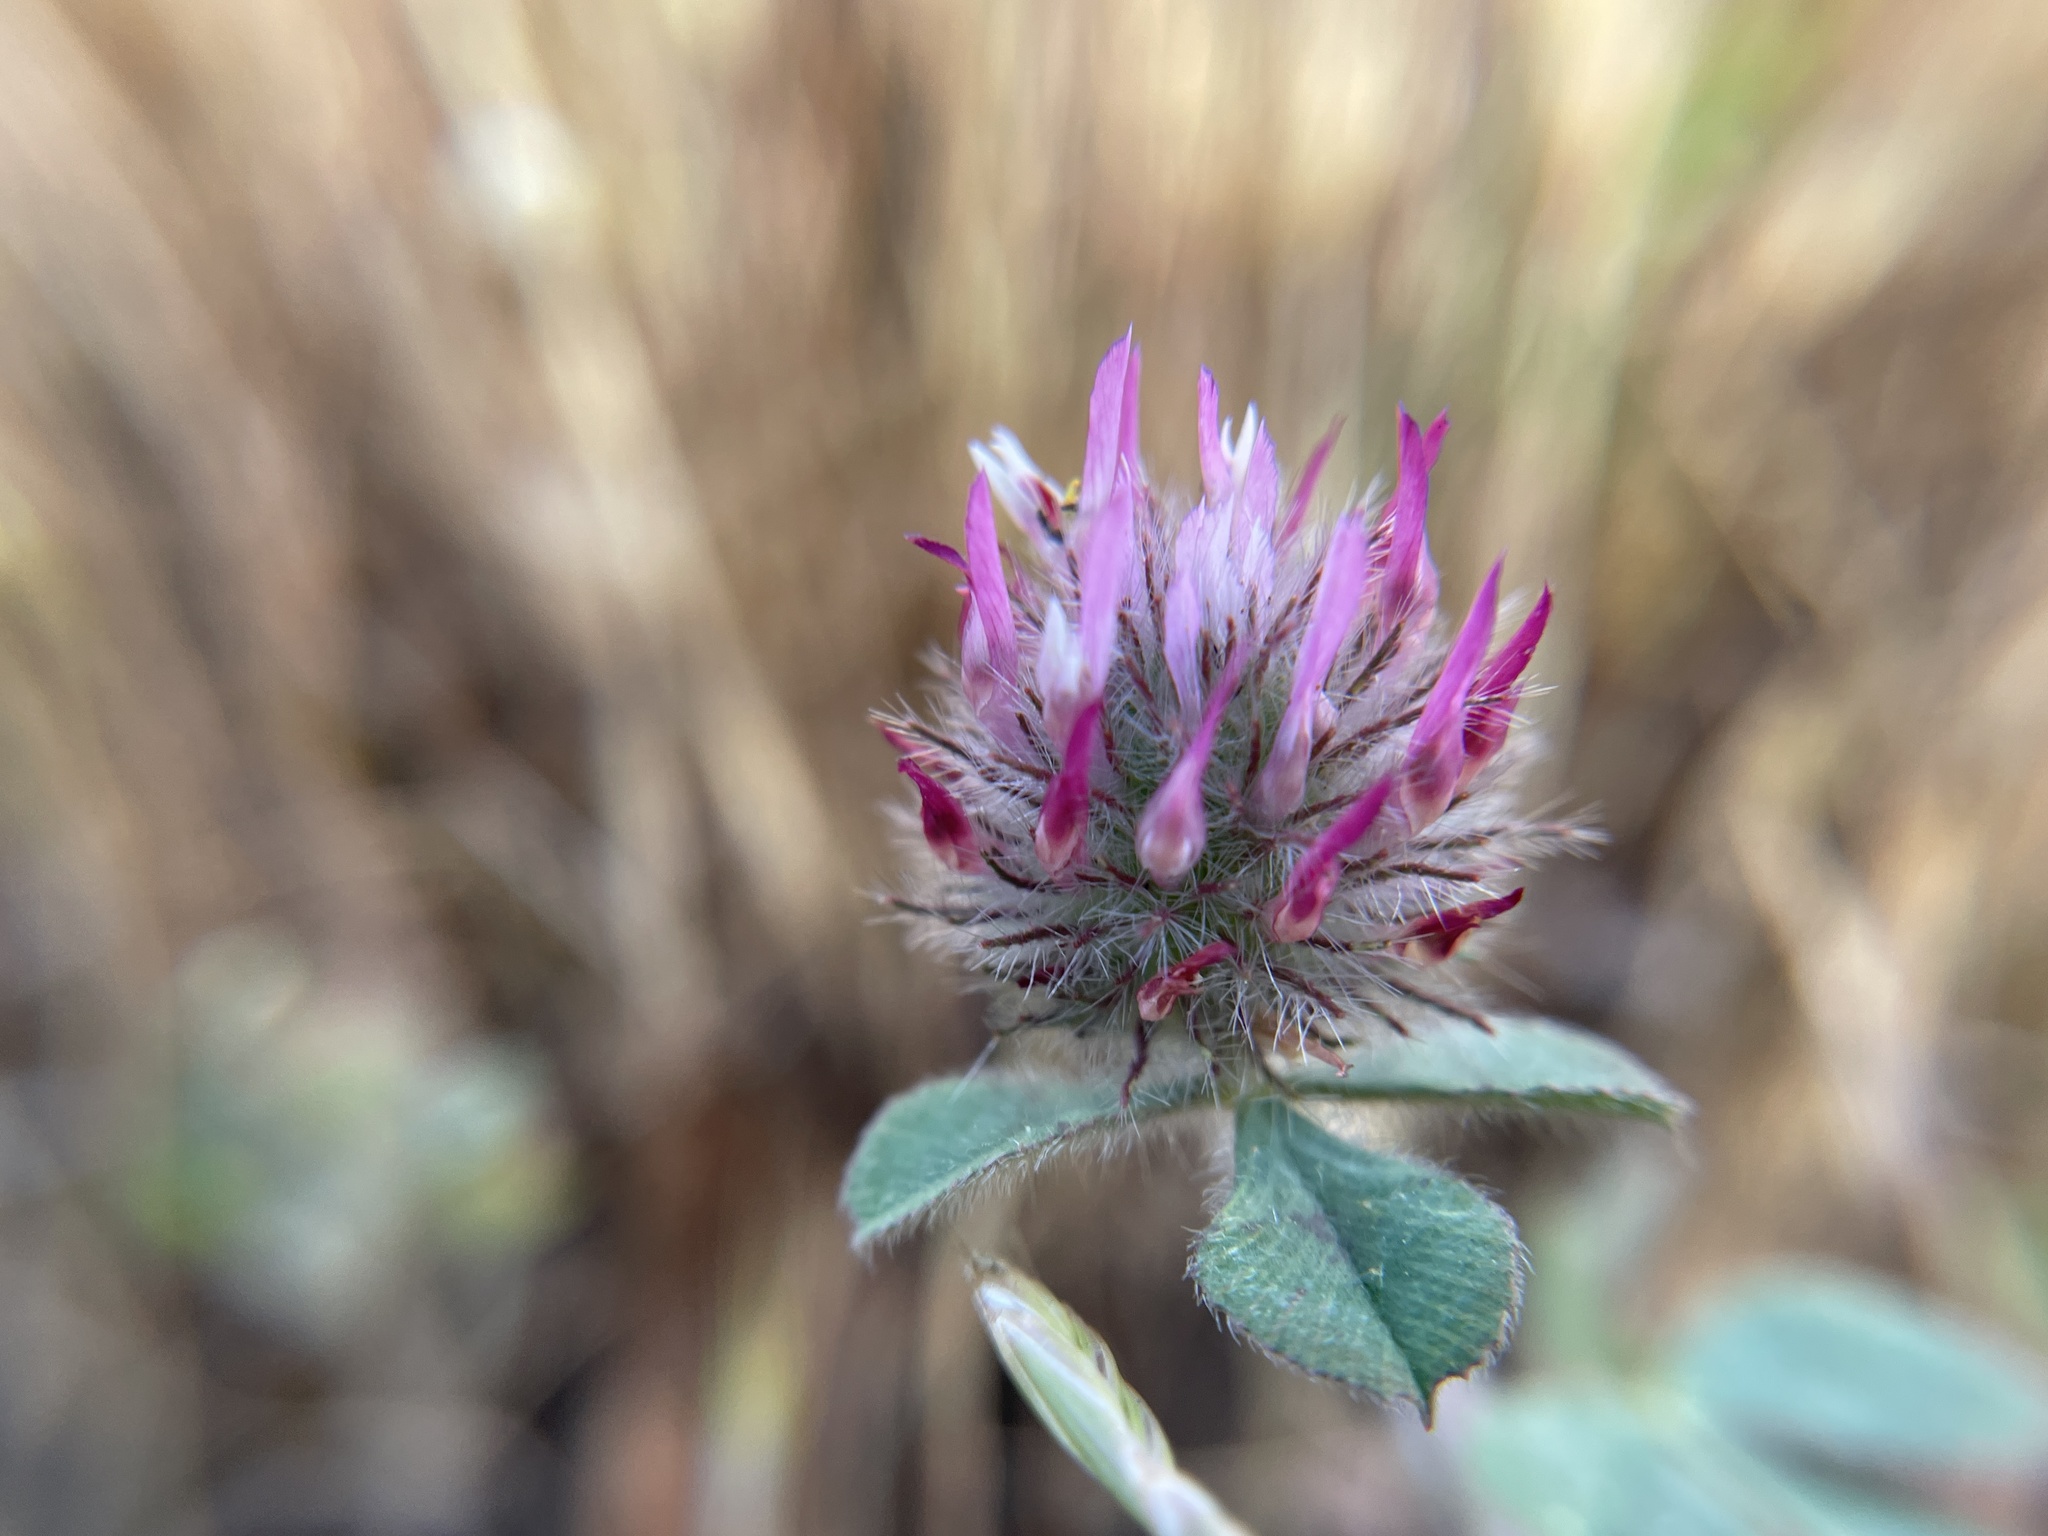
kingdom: Plantae
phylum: Tracheophyta
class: Magnoliopsida
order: Fabales
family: Fabaceae
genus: Trifolium
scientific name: Trifolium hirtum
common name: Rose clover
